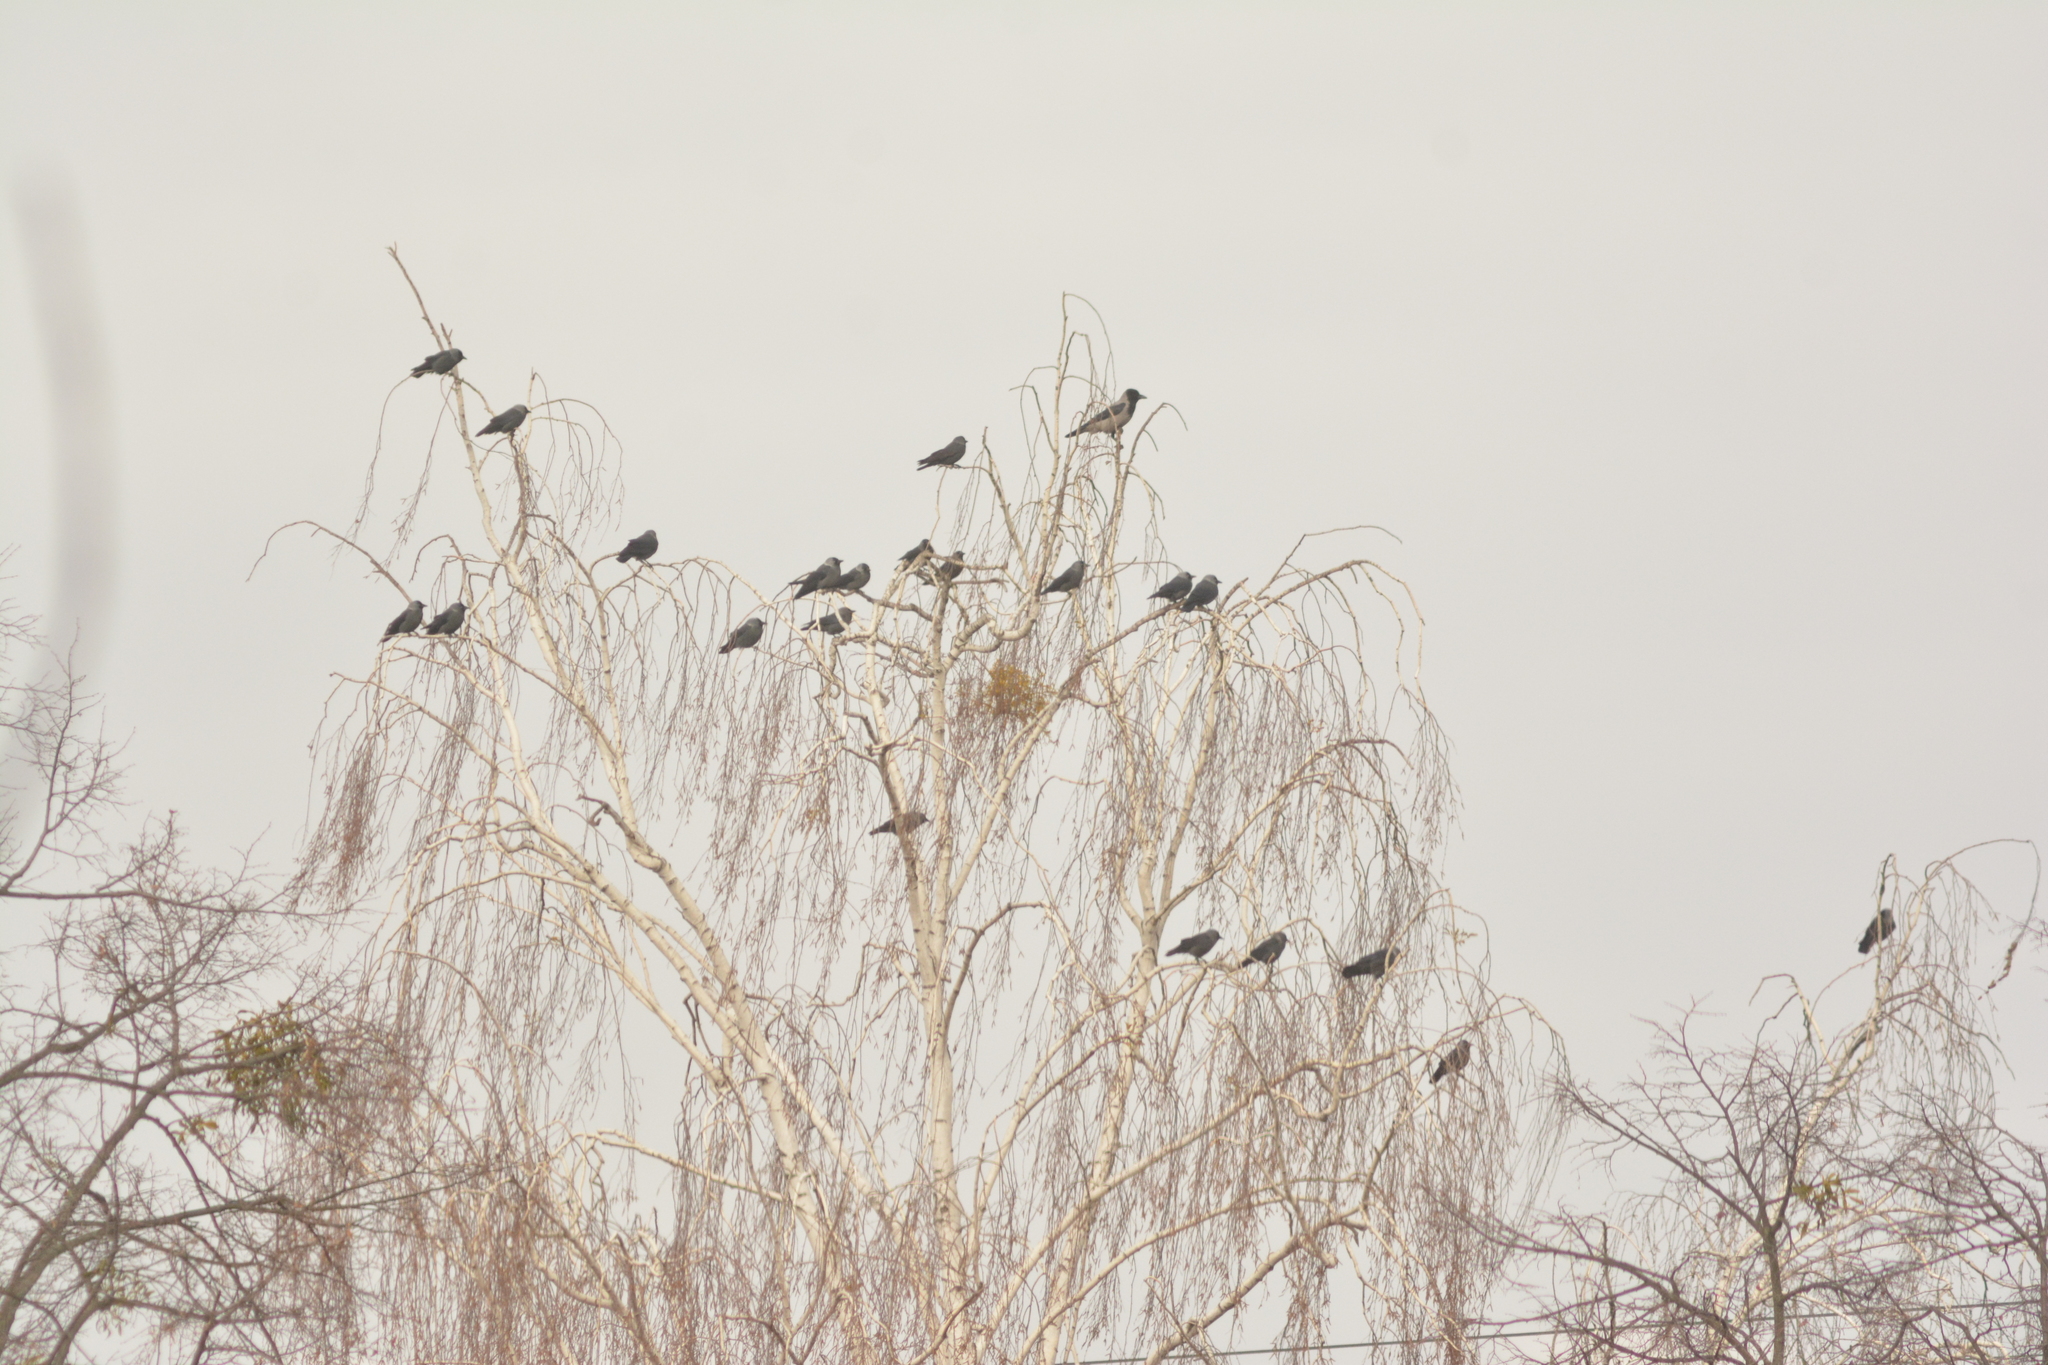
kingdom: Animalia
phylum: Chordata
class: Aves
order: Passeriformes
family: Corvidae
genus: Corvus
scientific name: Corvus cornix
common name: Hooded crow
